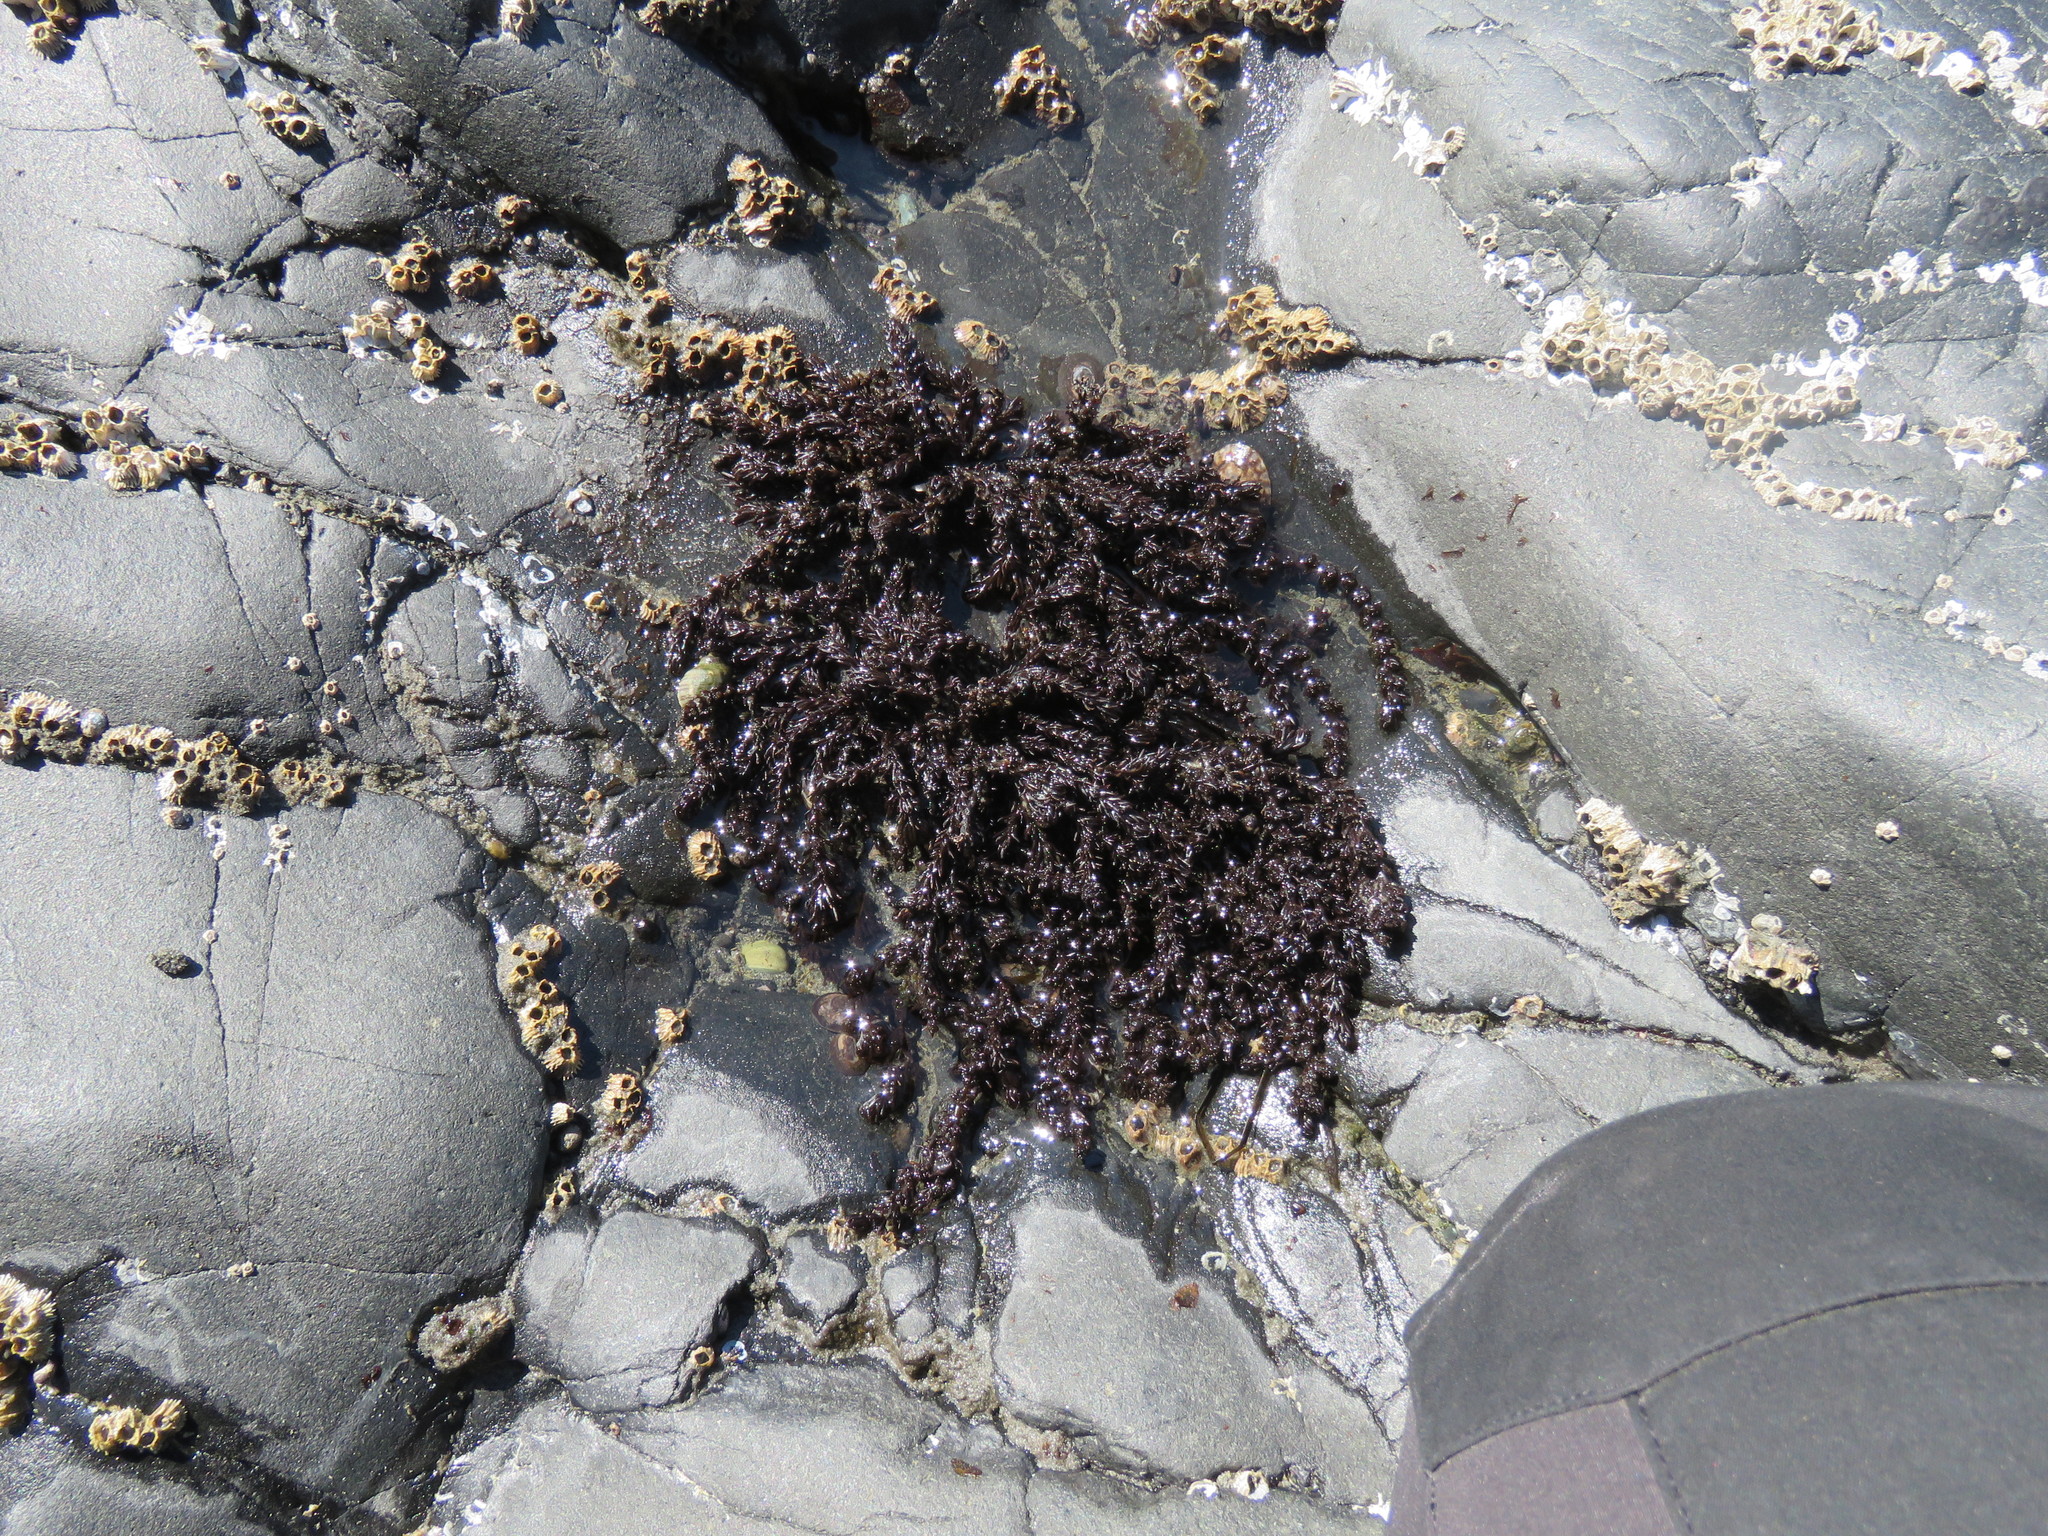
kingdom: Plantae
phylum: Rhodophyta
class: Florideophyceae
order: Ceramiales
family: Rhodomelaceae
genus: Neorhodomela
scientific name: Neorhodomela larix
